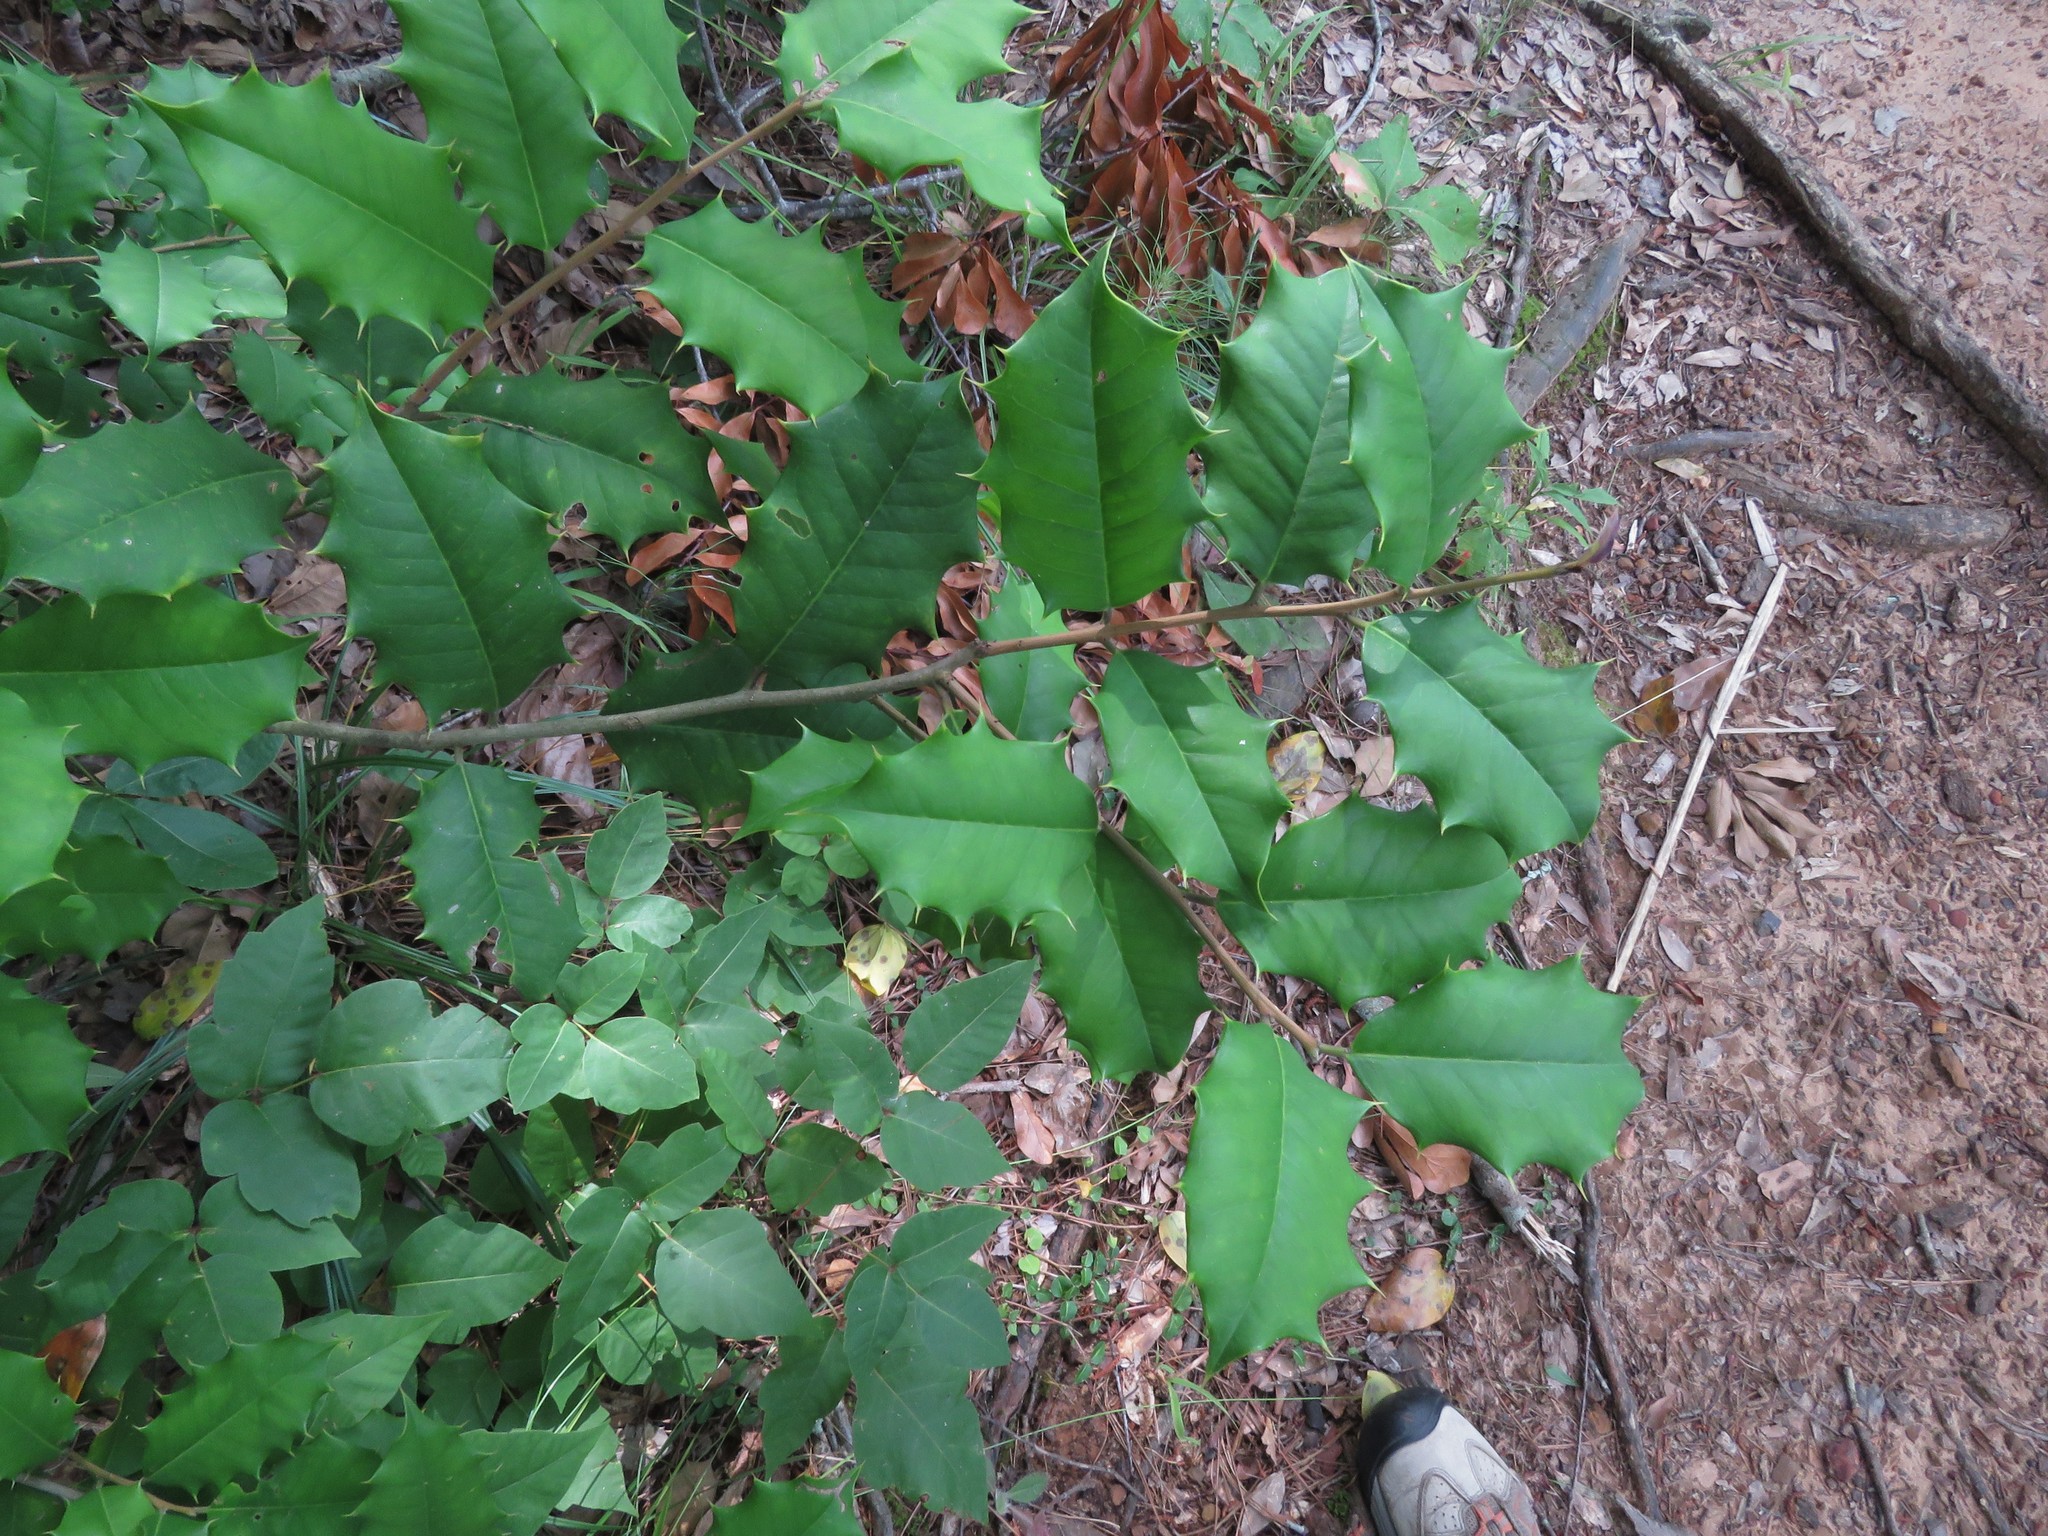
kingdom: Plantae
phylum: Tracheophyta
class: Magnoliopsida
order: Aquifoliales
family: Aquifoliaceae
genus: Ilex
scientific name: Ilex opaca
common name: American holly
